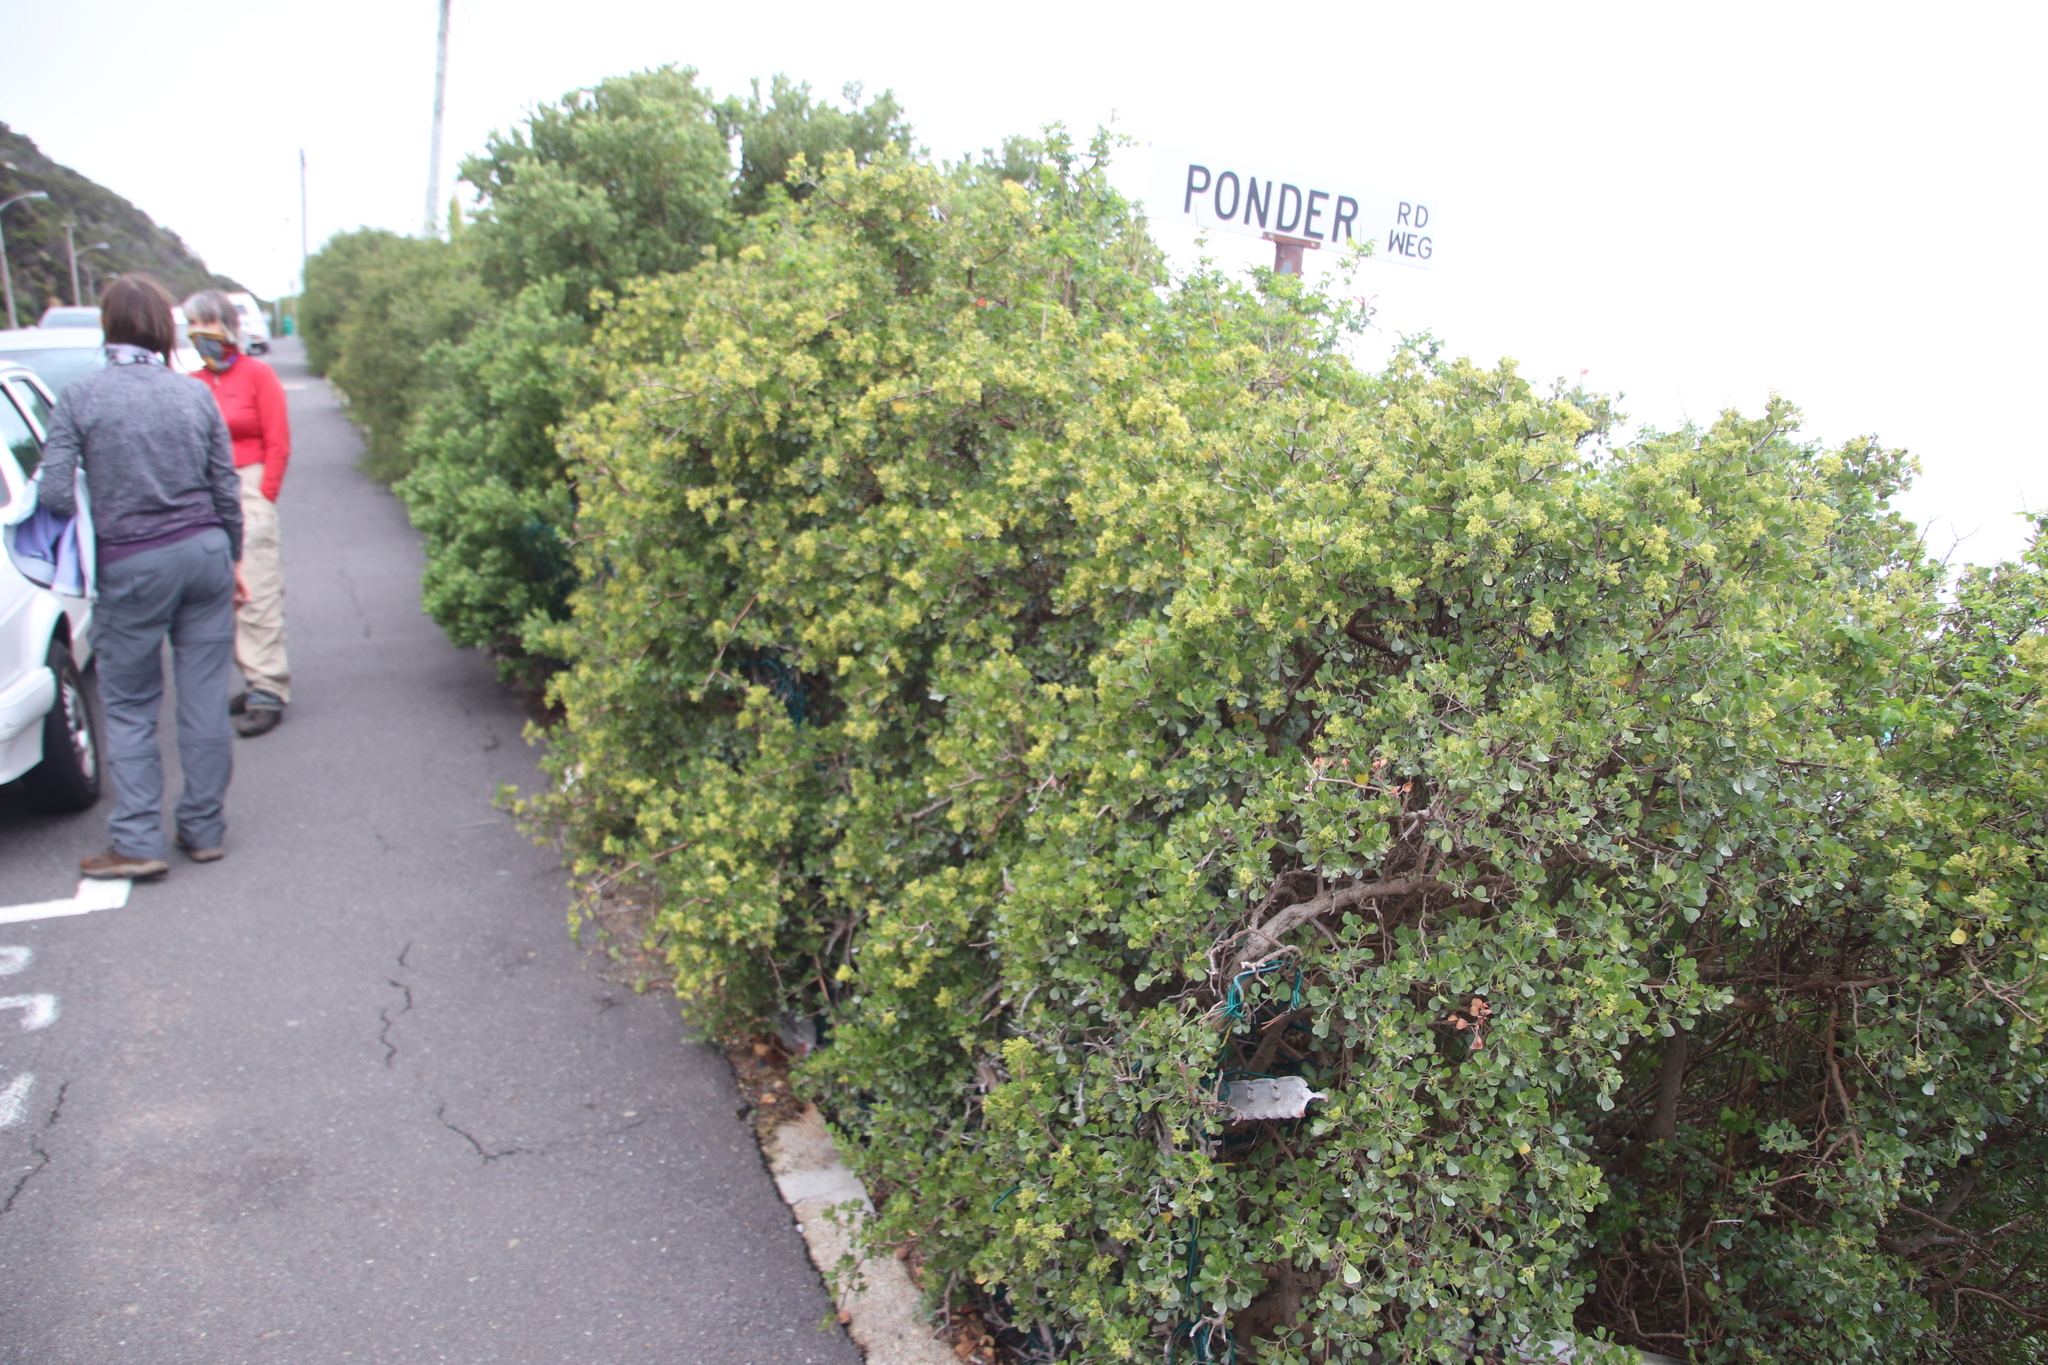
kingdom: Plantae
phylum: Tracheophyta
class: Magnoliopsida
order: Sapindales
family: Anacardiaceae
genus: Searsia
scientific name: Searsia glauca
